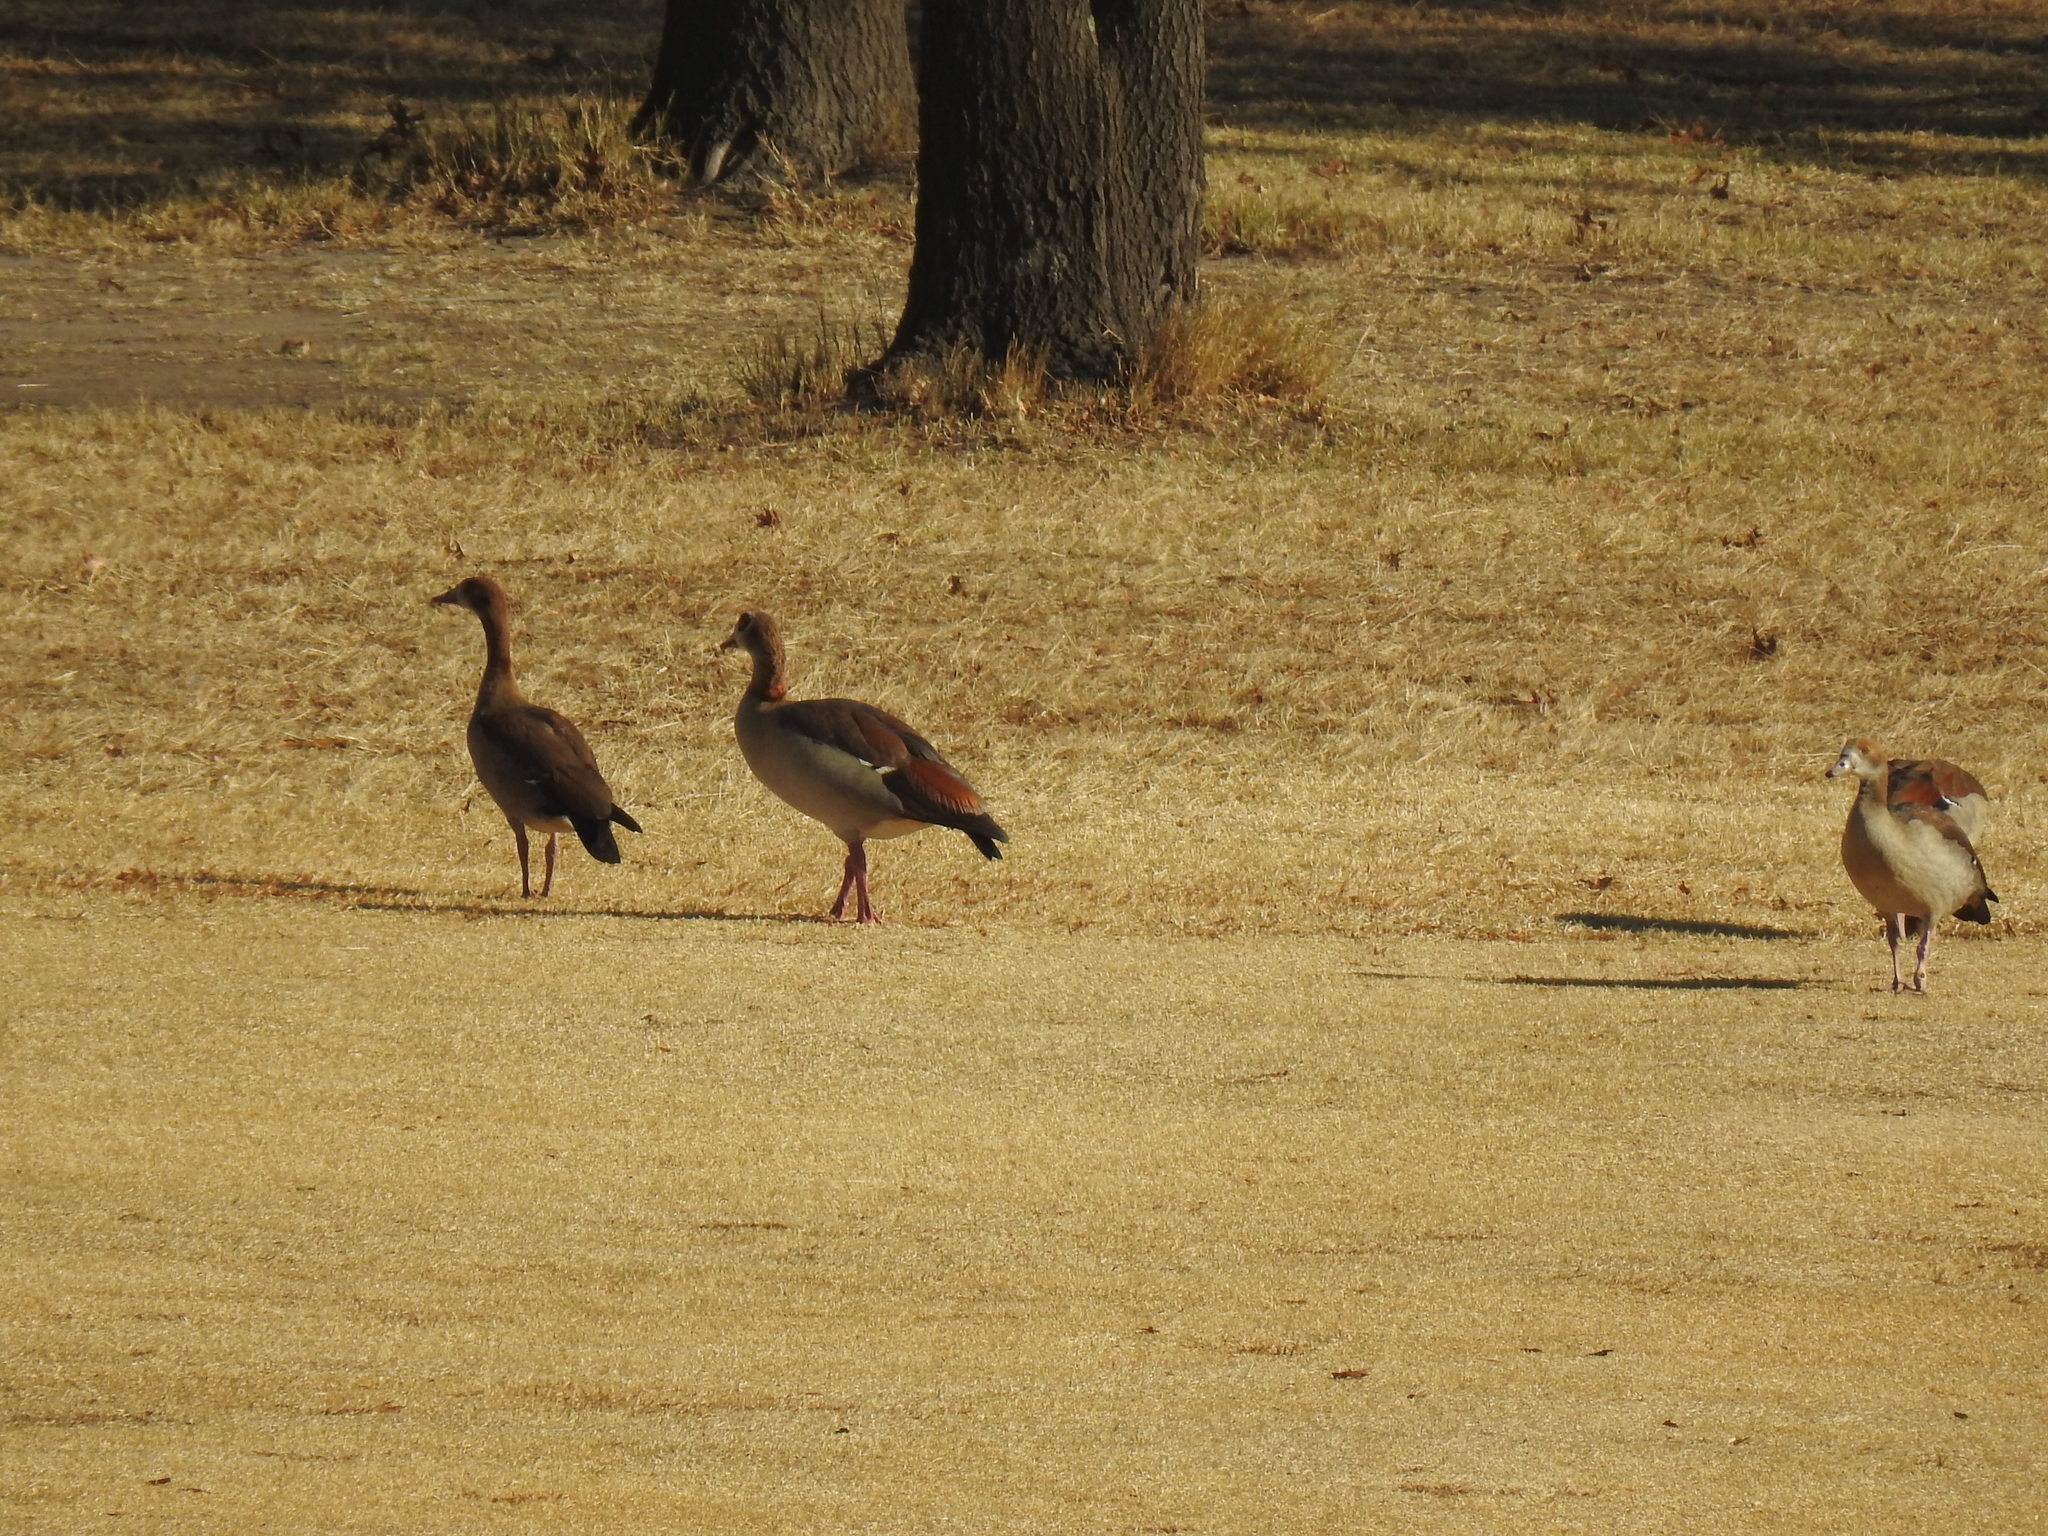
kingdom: Animalia
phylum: Chordata
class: Aves
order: Anseriformes
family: Anatidae
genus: Alopochen
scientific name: Alopochen aegyptiaca
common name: Egyptian goose
